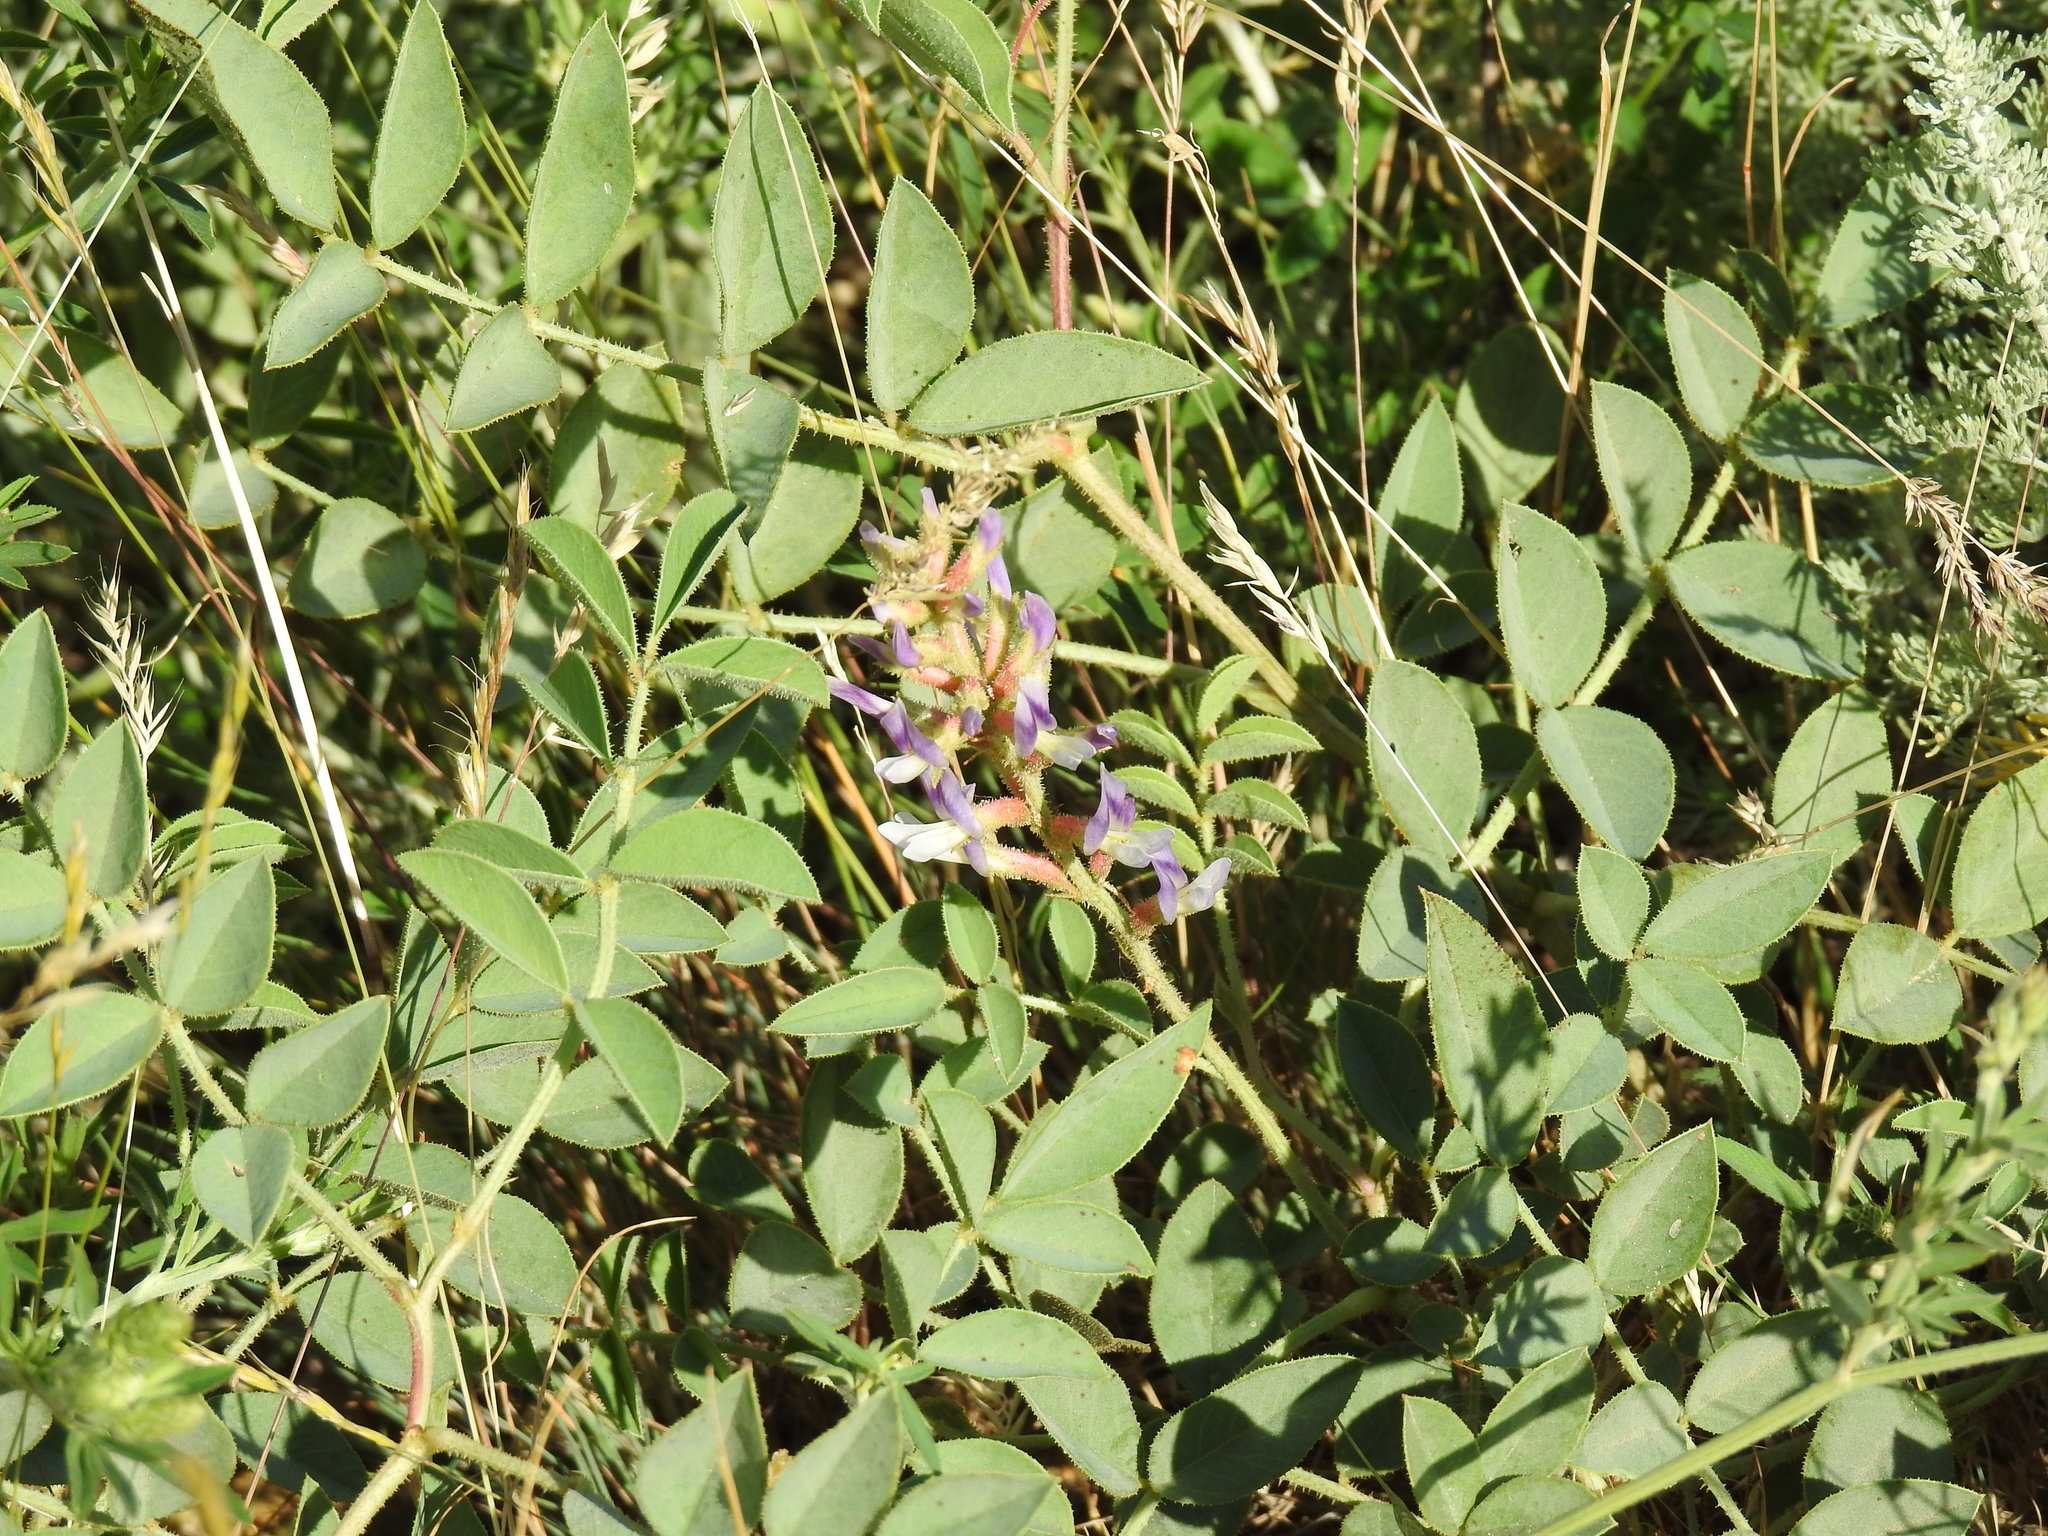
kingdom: Plantae
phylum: Tracheophyta
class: Magnoliopsida
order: Fabales
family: Fabaceae
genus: Glycyrrhiza
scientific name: Glycyrrhiza aspera
